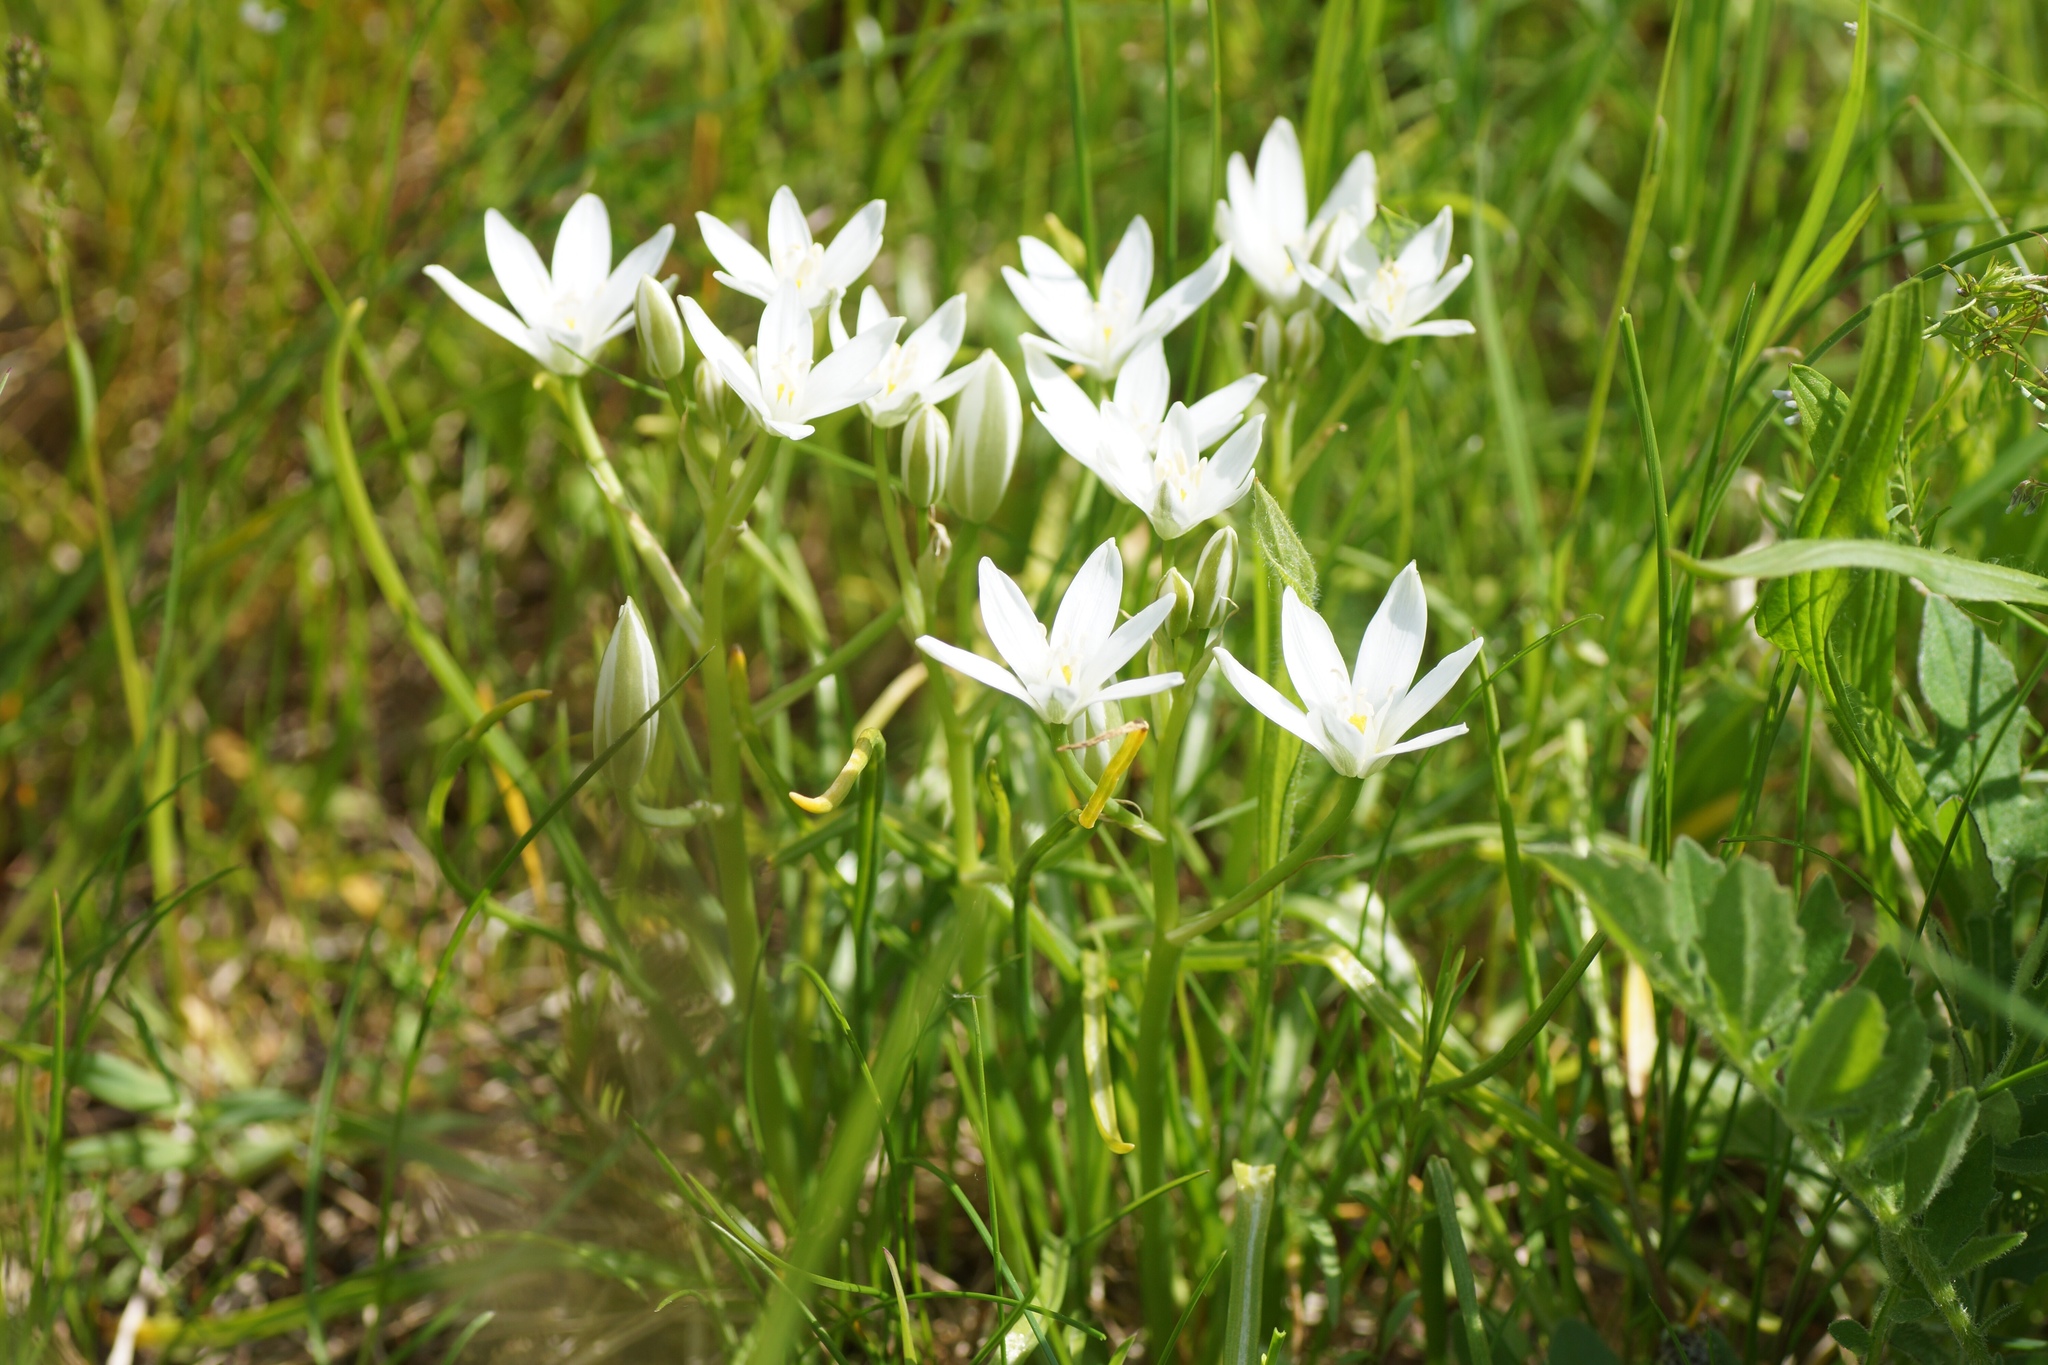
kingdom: Plantae
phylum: Tracheophyta
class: Liliopsida
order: Asparagales
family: Asparagaceae
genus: Ornithogalum
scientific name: Ornithogalum umbellatum
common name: Garden star-of-bethlehem
